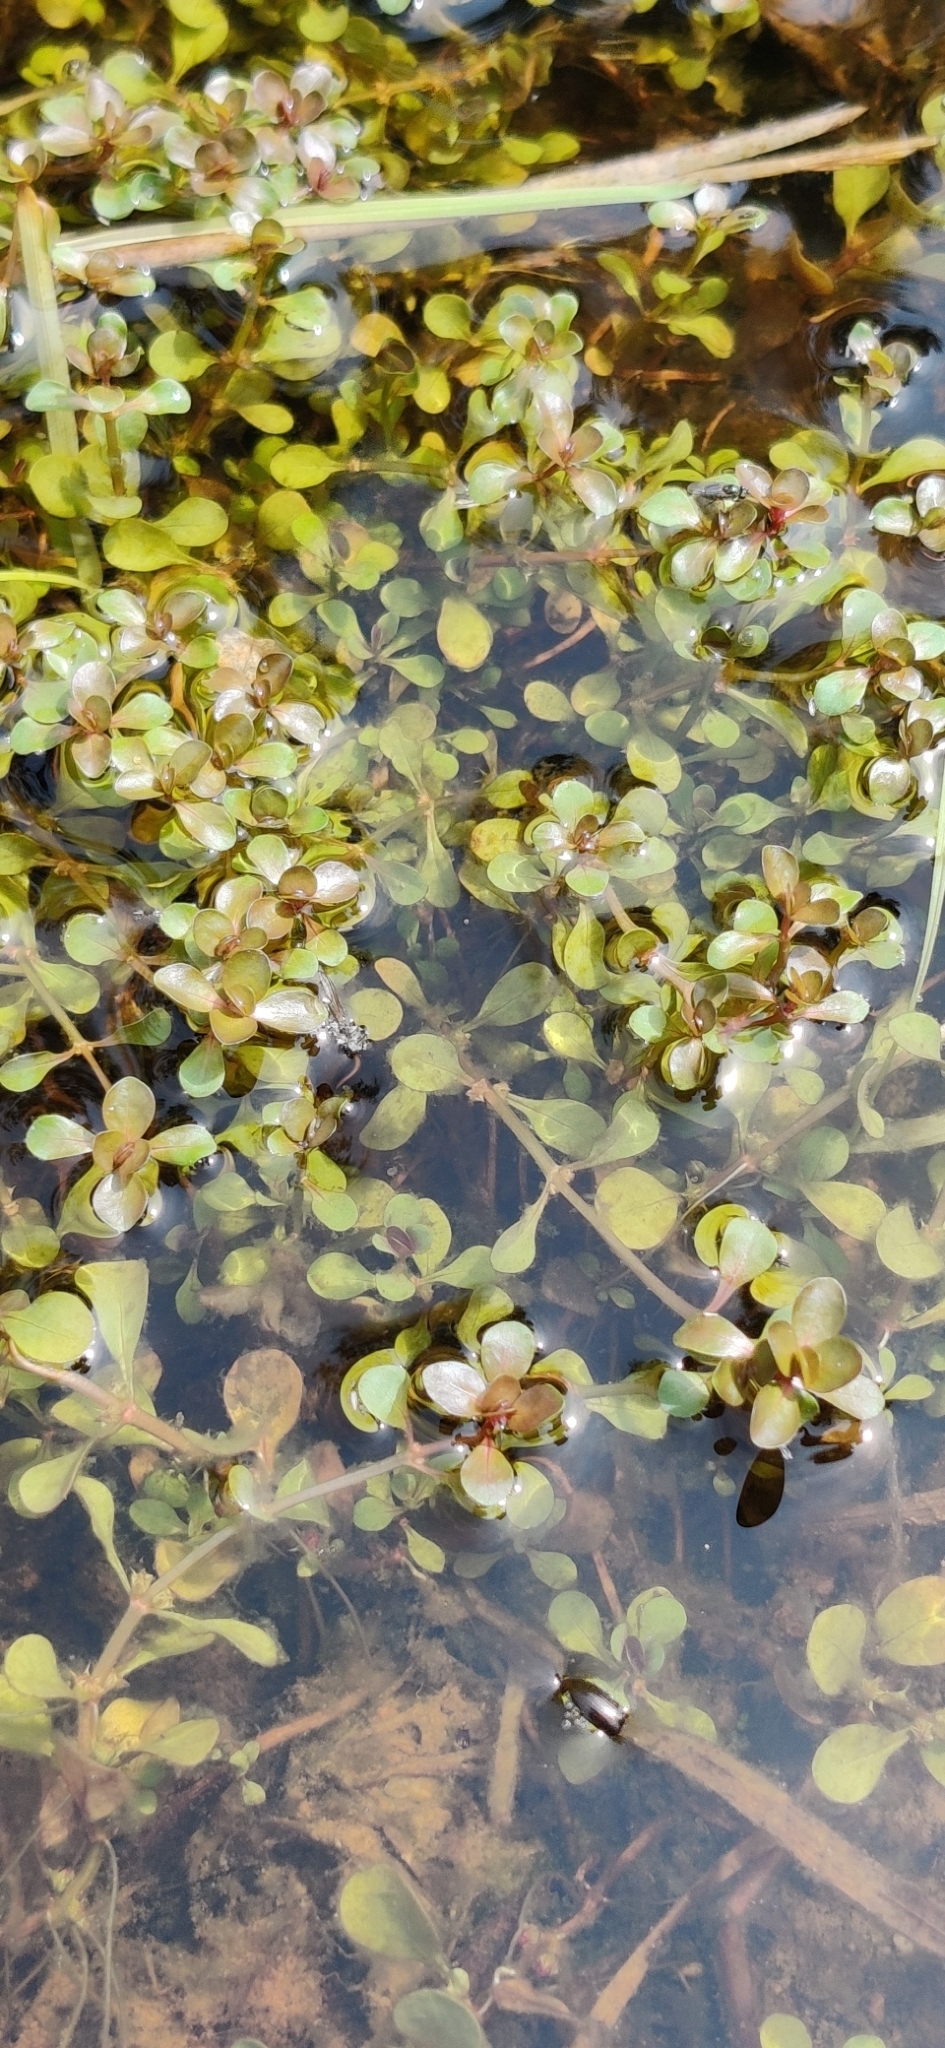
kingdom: Plantae
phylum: Tracheophyta
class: Magnoliopsida
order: Myrtales
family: Lythraceae
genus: Lythrum
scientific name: Lythrum portula
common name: Water purslane
